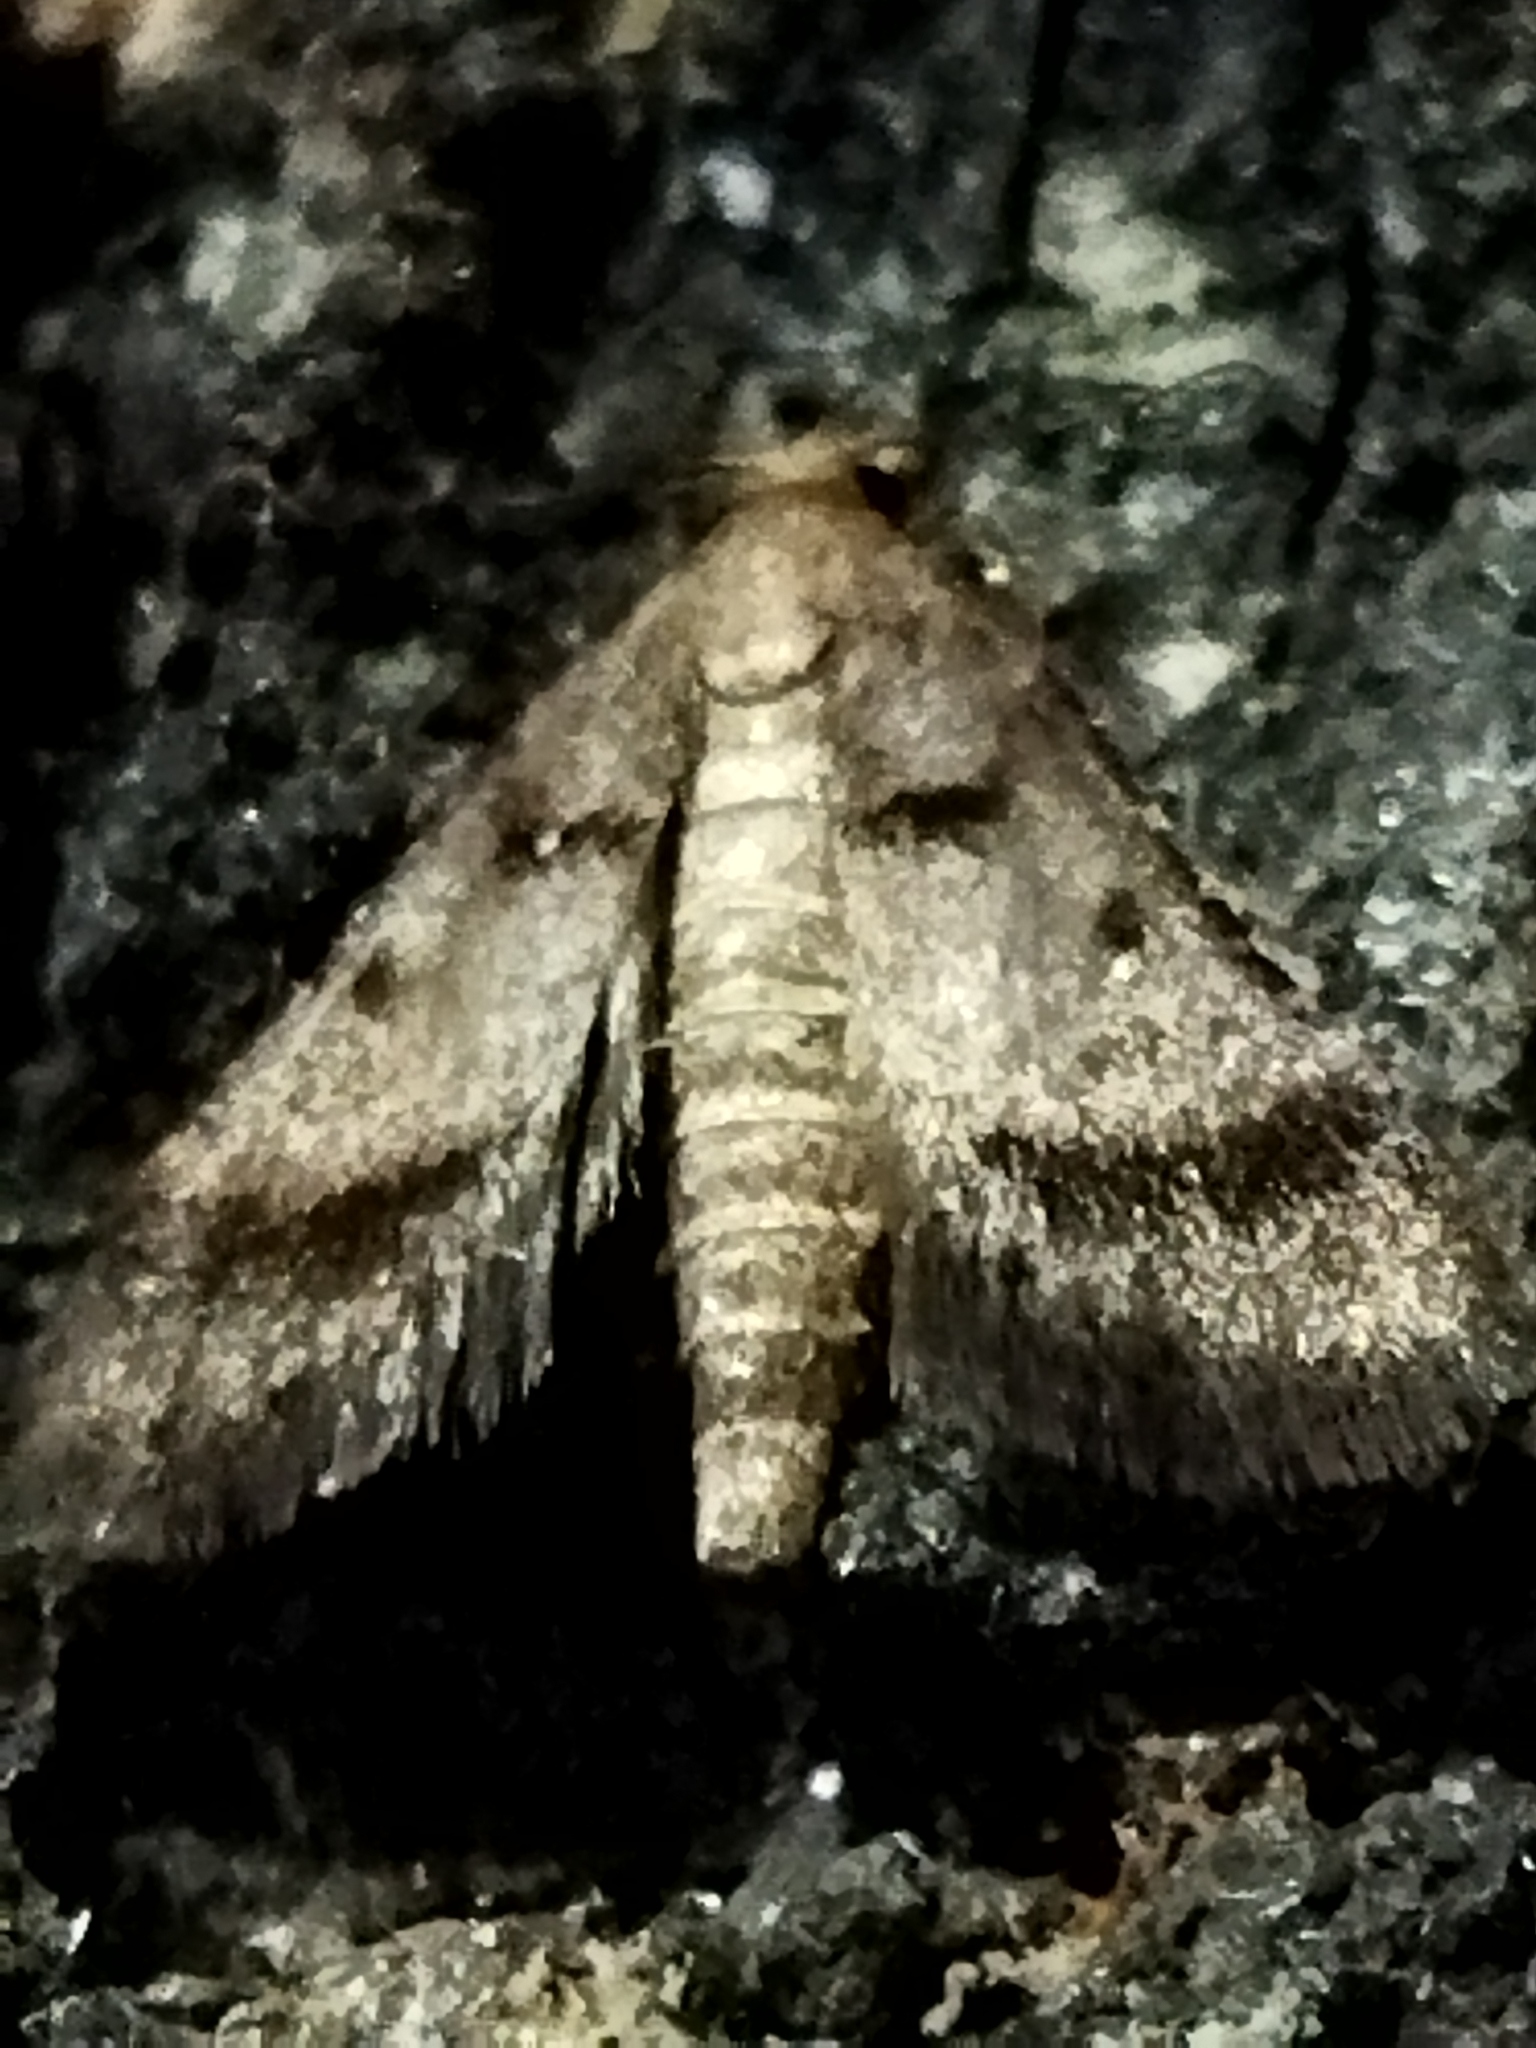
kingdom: Animalia
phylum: Arthropoda
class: Insecta
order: Lepidoptera
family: Pyralidae
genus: Stemmatophora
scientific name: Stemmatophora brunnealis
